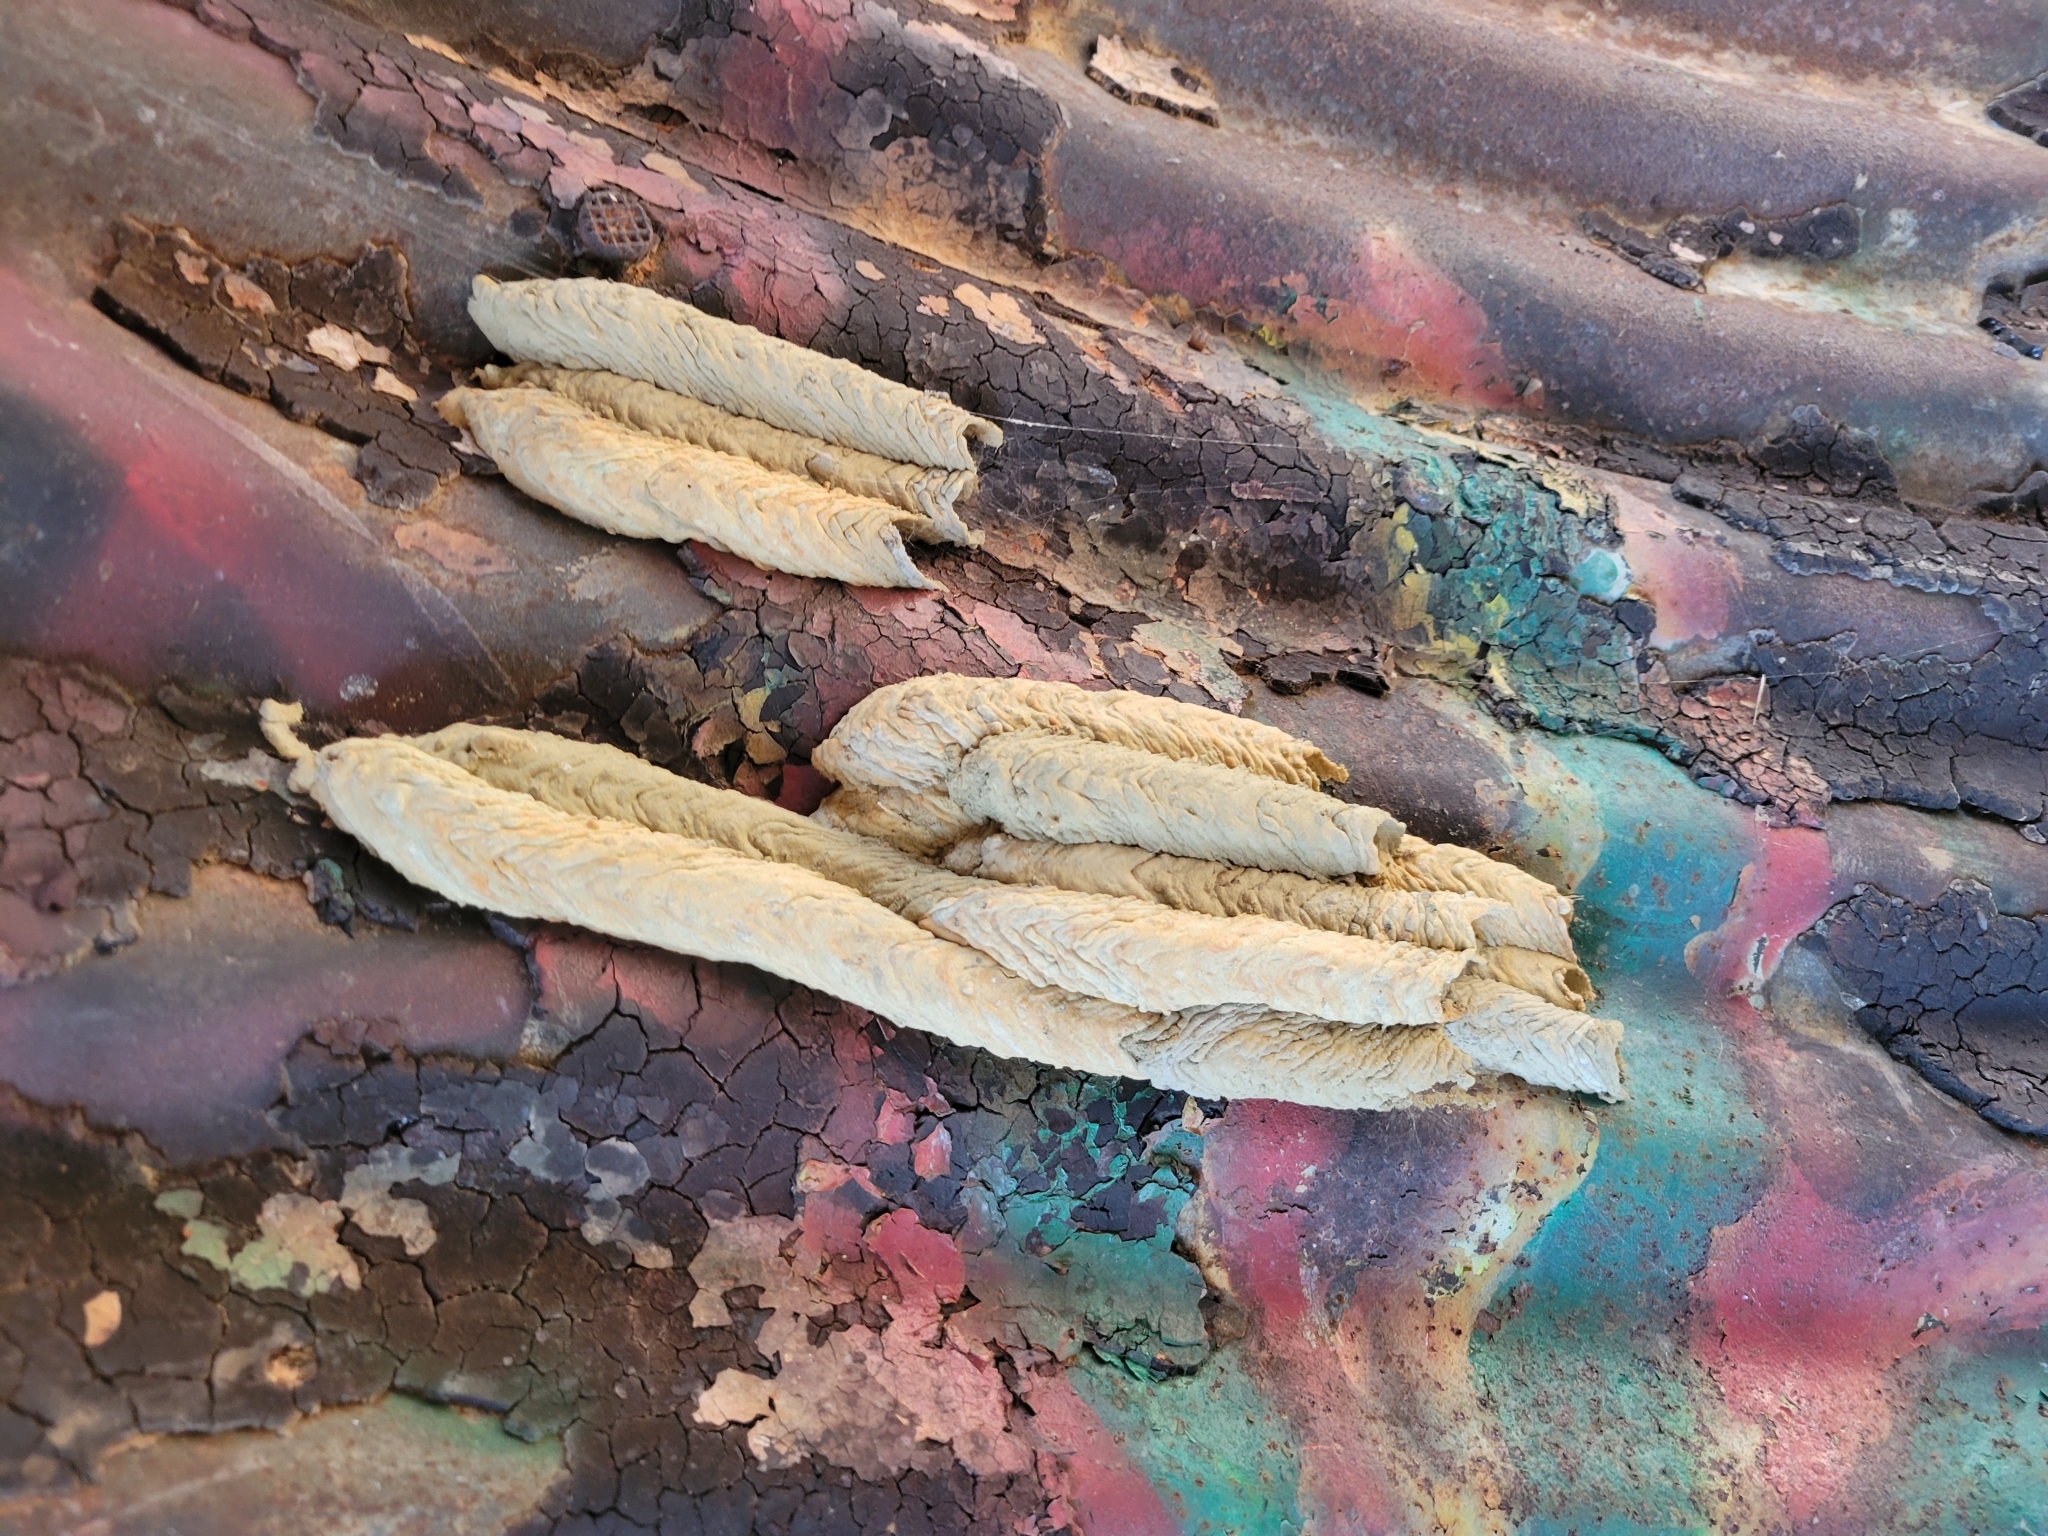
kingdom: Animalia
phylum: Arthropoda
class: Insecta
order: Hymenoptera
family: Crabronidae
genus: Trypoxylon
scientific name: Trypoxylon politum
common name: Organ-pipe mud-dauber wasp
